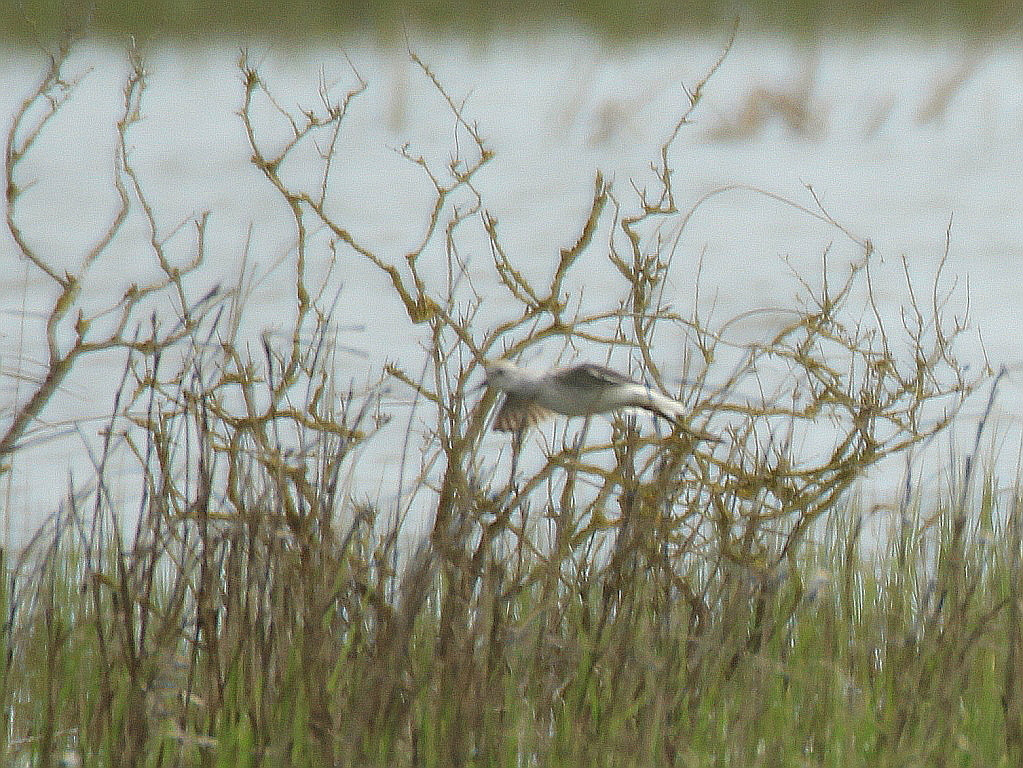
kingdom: Animalia
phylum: Chordata
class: Aves
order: Charadriiformes
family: Scolopacidae
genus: Tringa
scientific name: Tringa stagnatilis
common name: Marsh sandpiper
